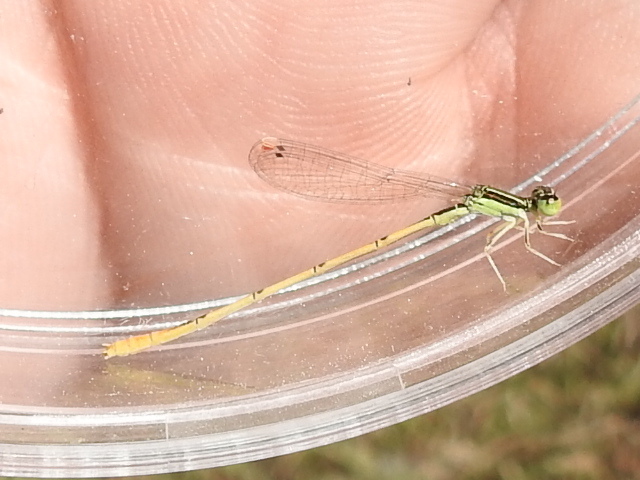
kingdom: Animalia
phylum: Arthropoda
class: Insecta
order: Odonata
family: Coenagrionidae
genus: Ischnura
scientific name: Ischnura hastata
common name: Citrine forktail
